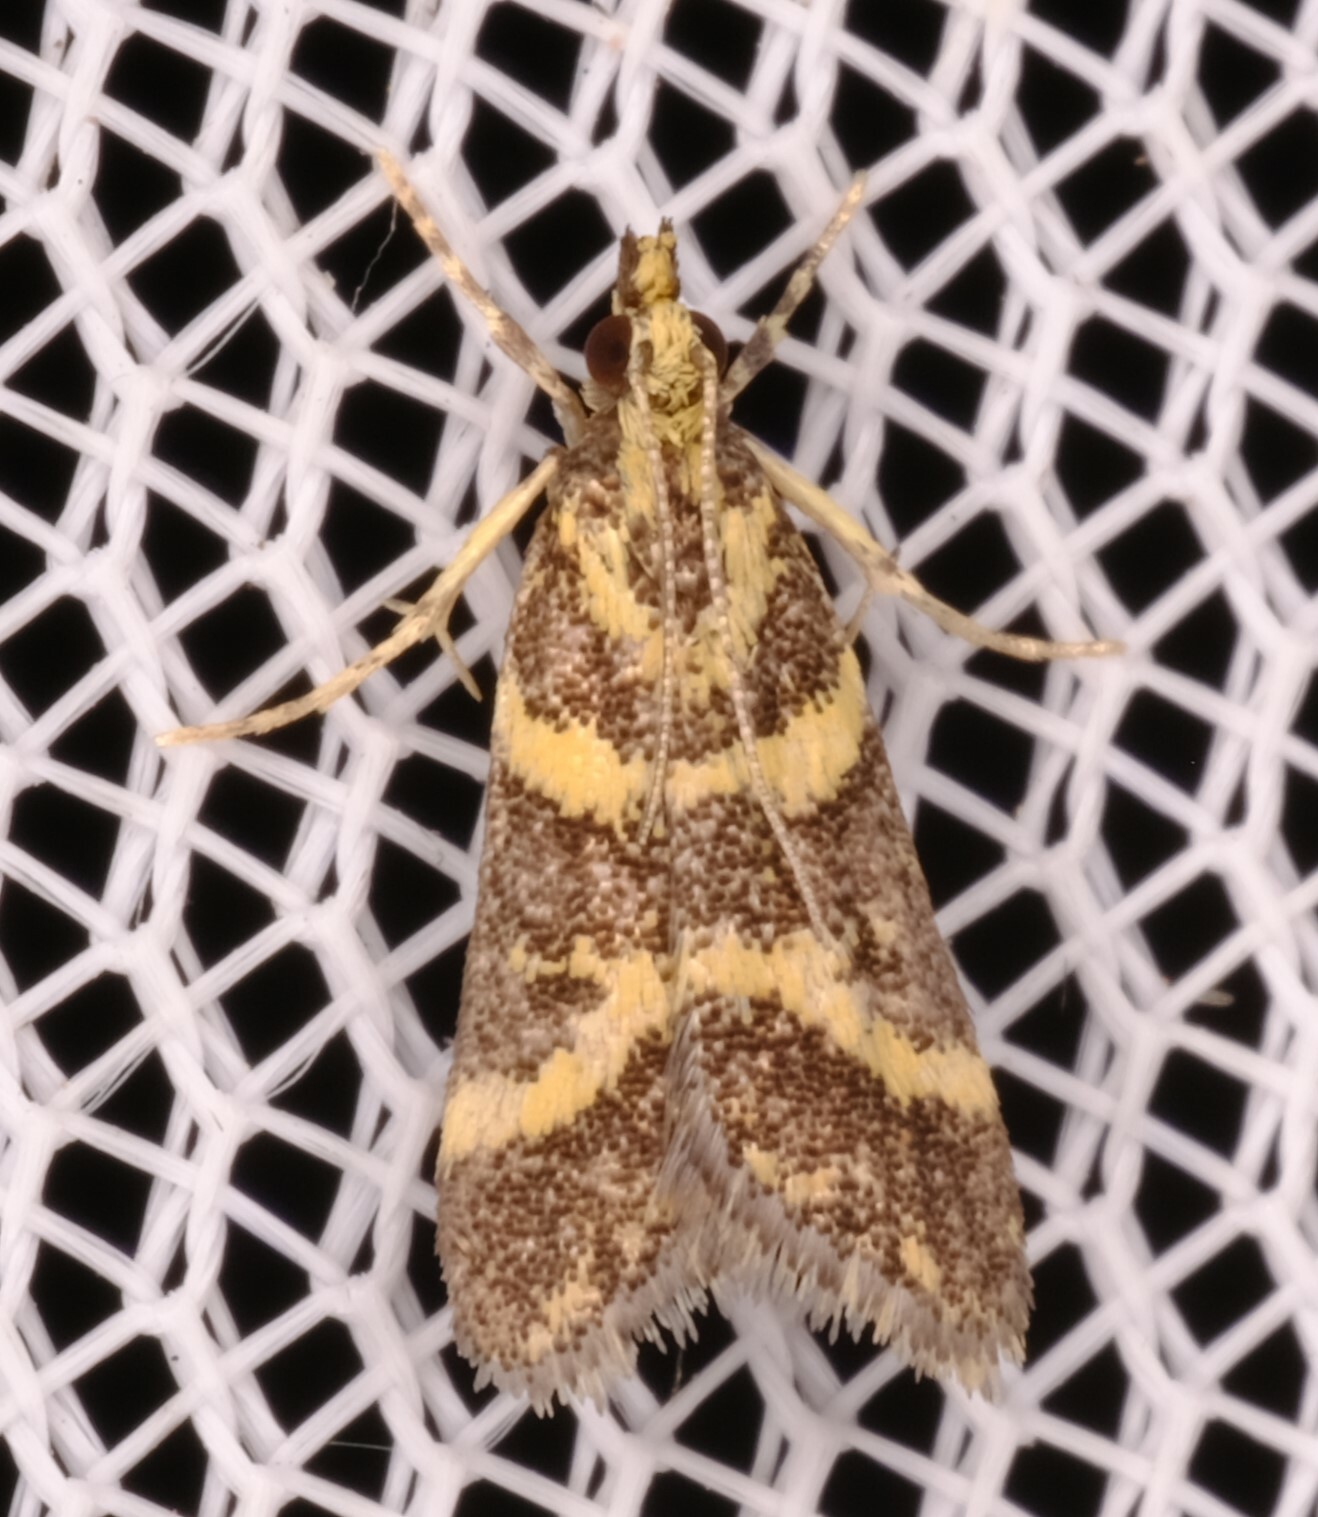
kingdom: Animalia
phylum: Arthropoda
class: Insecta
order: Lepidoptera
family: Crambidae
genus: Scoparia
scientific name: Scoparia spelaea
